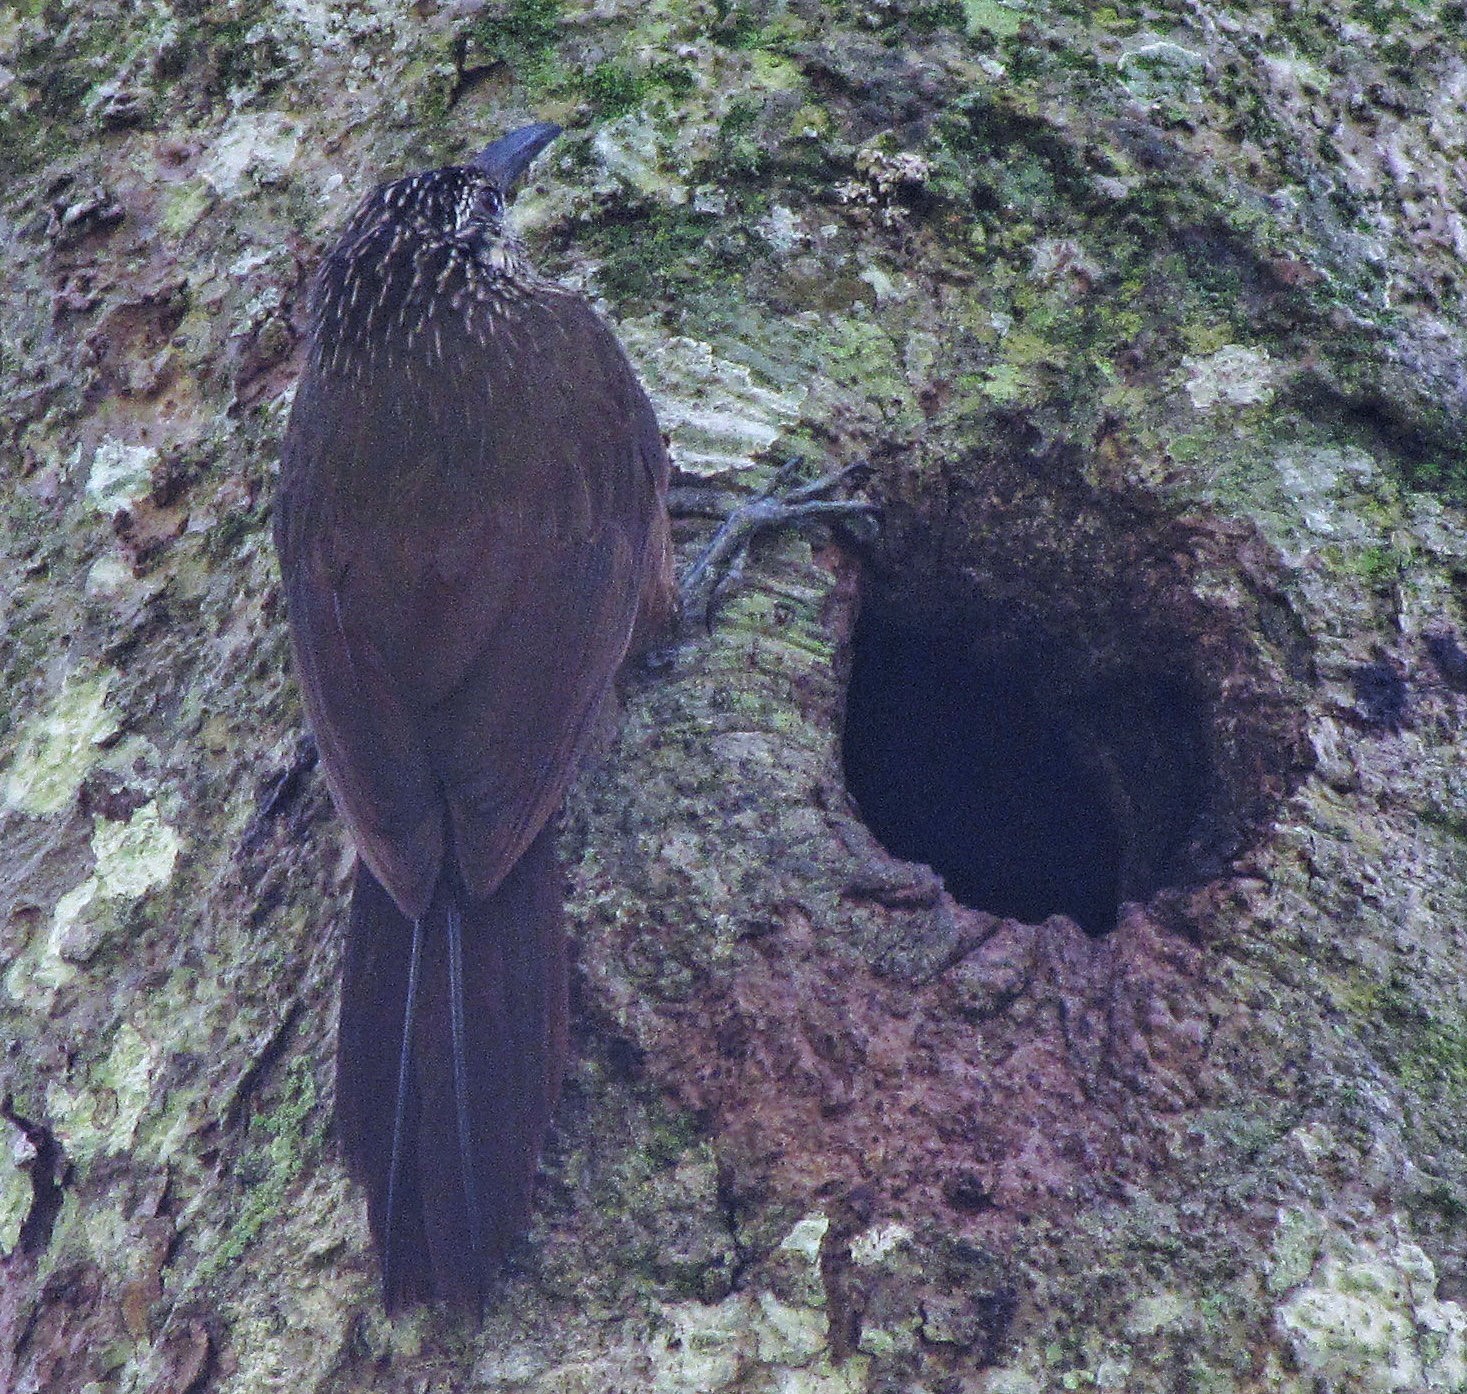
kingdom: Animalia
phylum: Chordata
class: Aves
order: Passeriformes
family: Furnariidae
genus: Xiphocolaptes
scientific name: Xiphocolaptes albicollis
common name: White-throated woodcreeper
